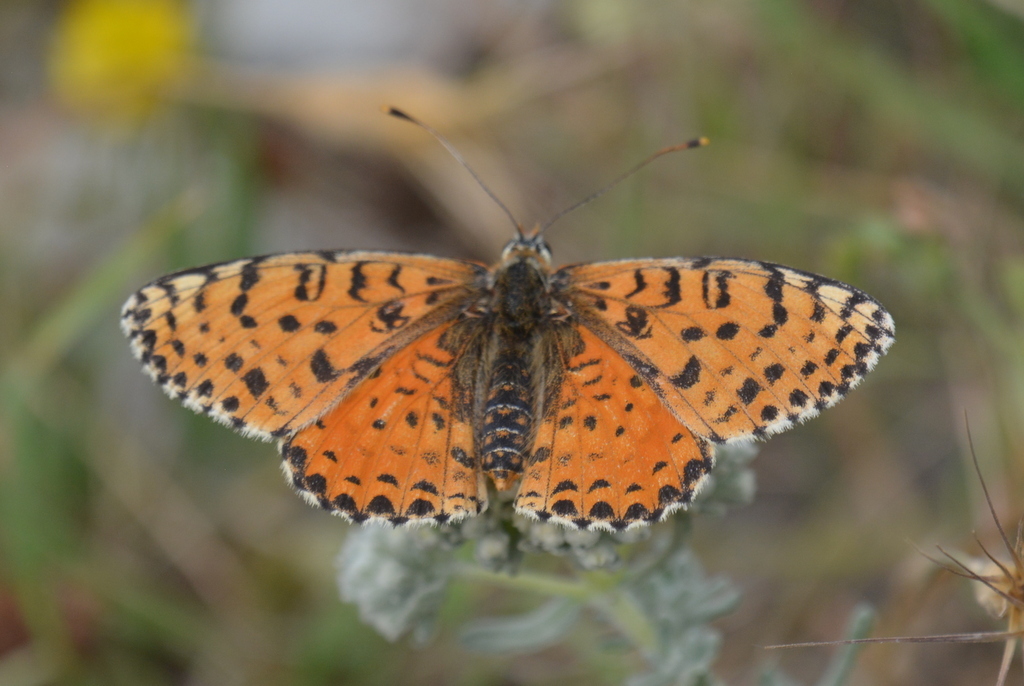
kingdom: Animalia
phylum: Arthropoda
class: Insecta
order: Lepidoptera
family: Nymphalidae
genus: Melitaea
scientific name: Melitaea didyma
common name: Spotted fritillary
